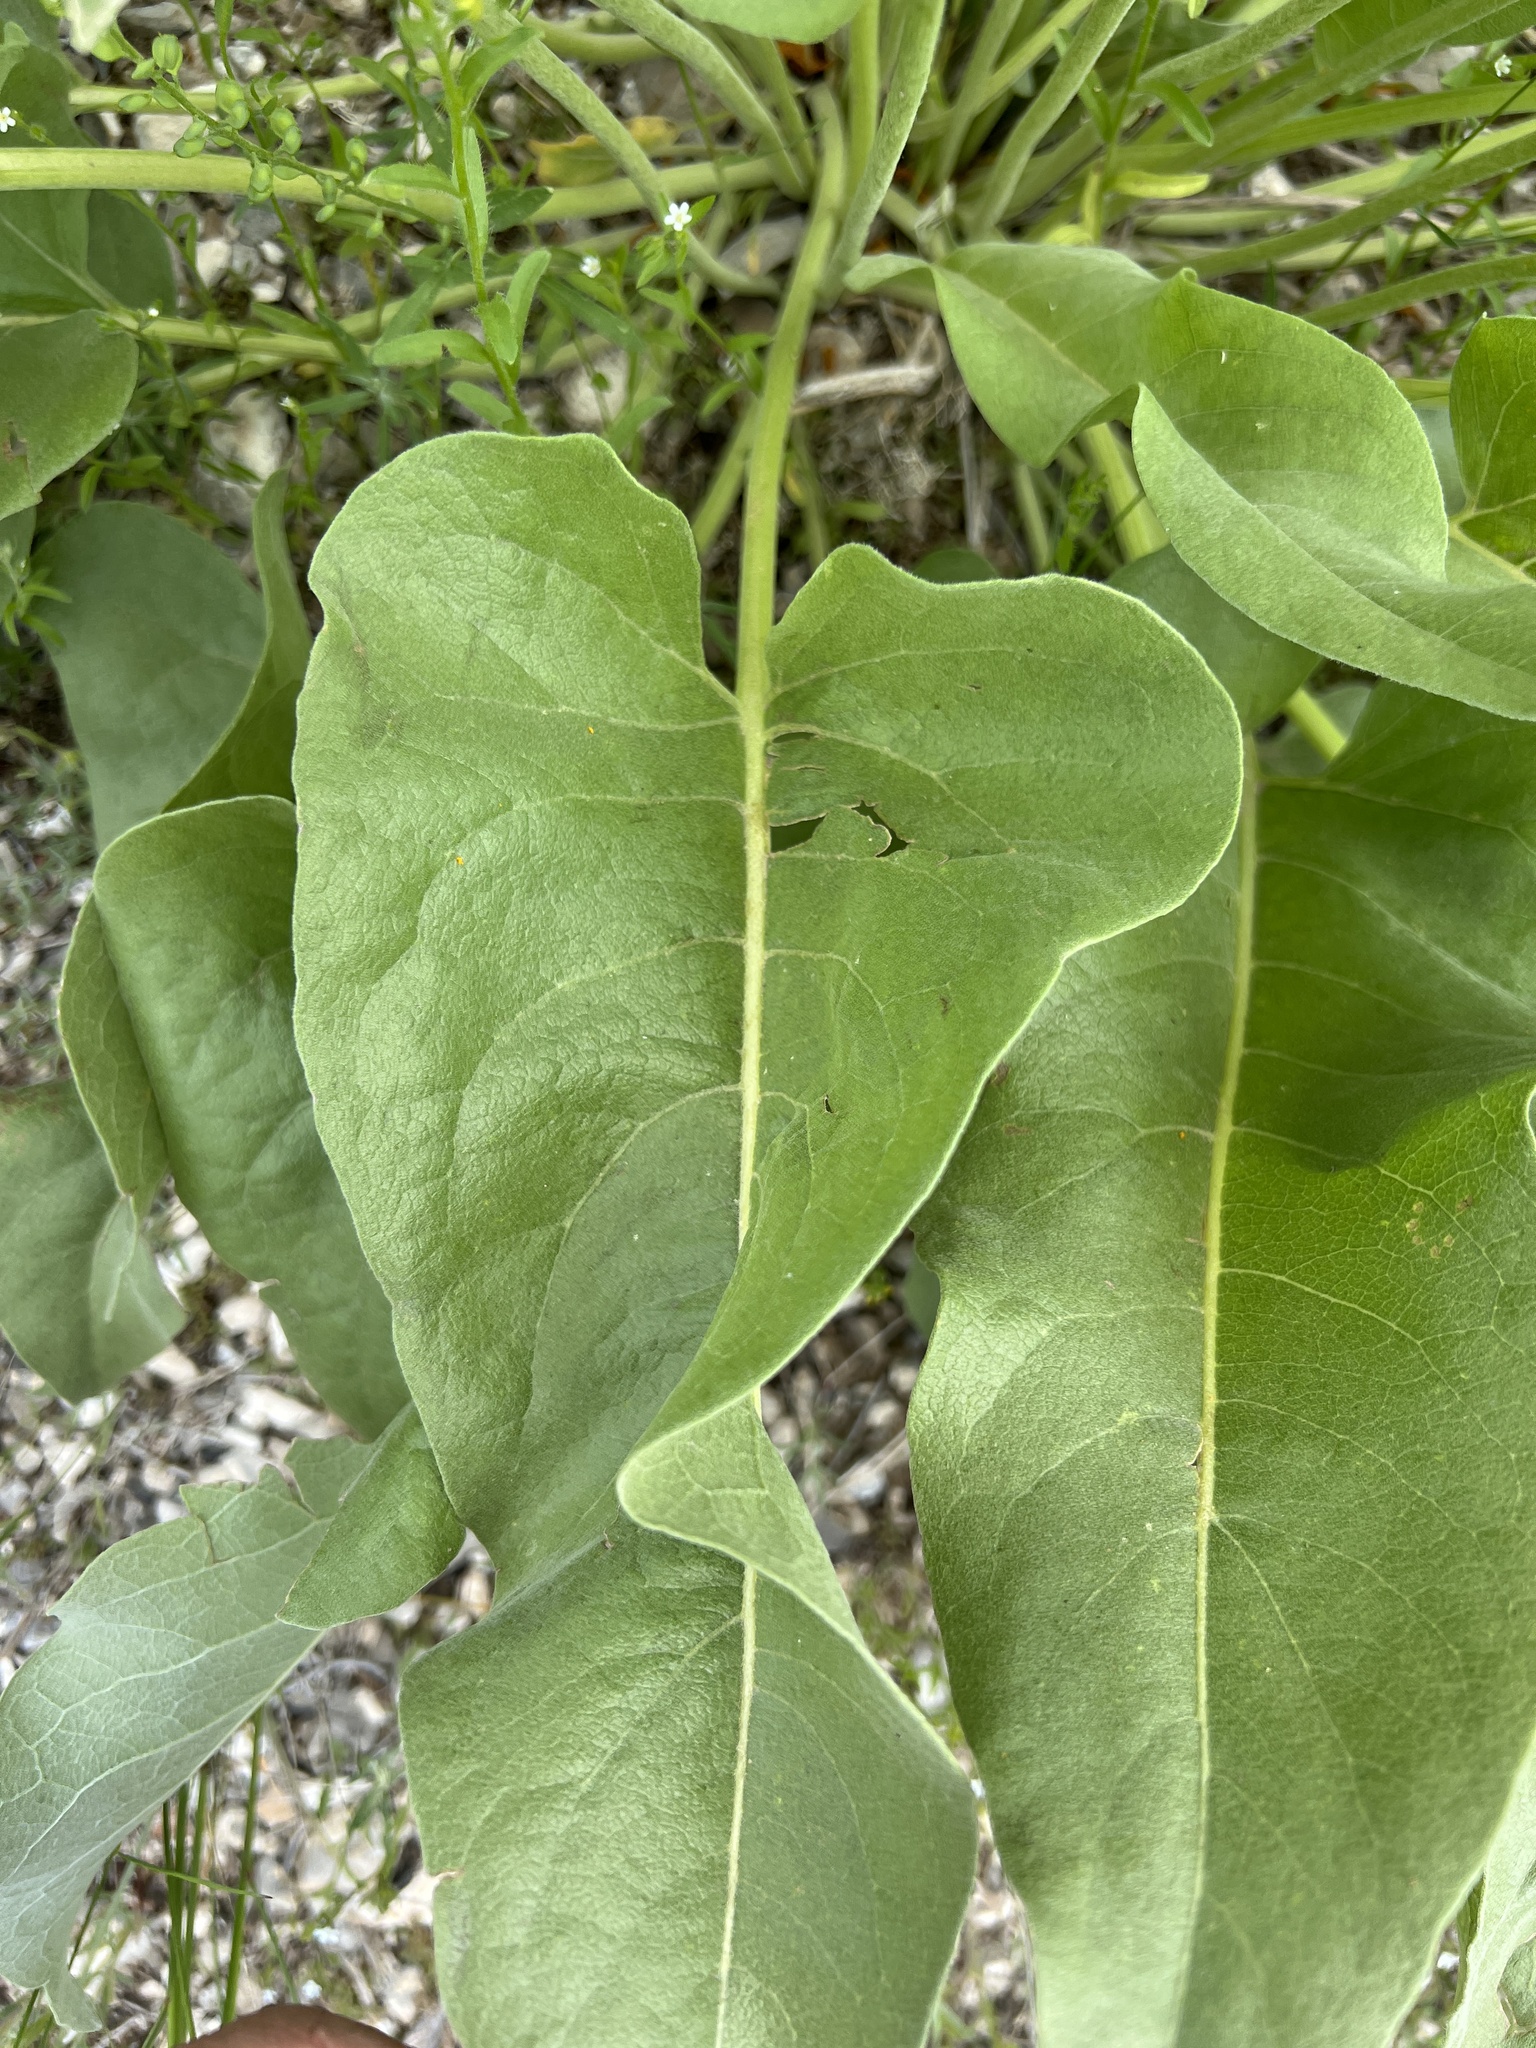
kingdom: Plantae
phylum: Tracheophyta
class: Magnoliopsida
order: Asterales
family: Asteraceae
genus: Wyethia
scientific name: Wyethia sagittata
